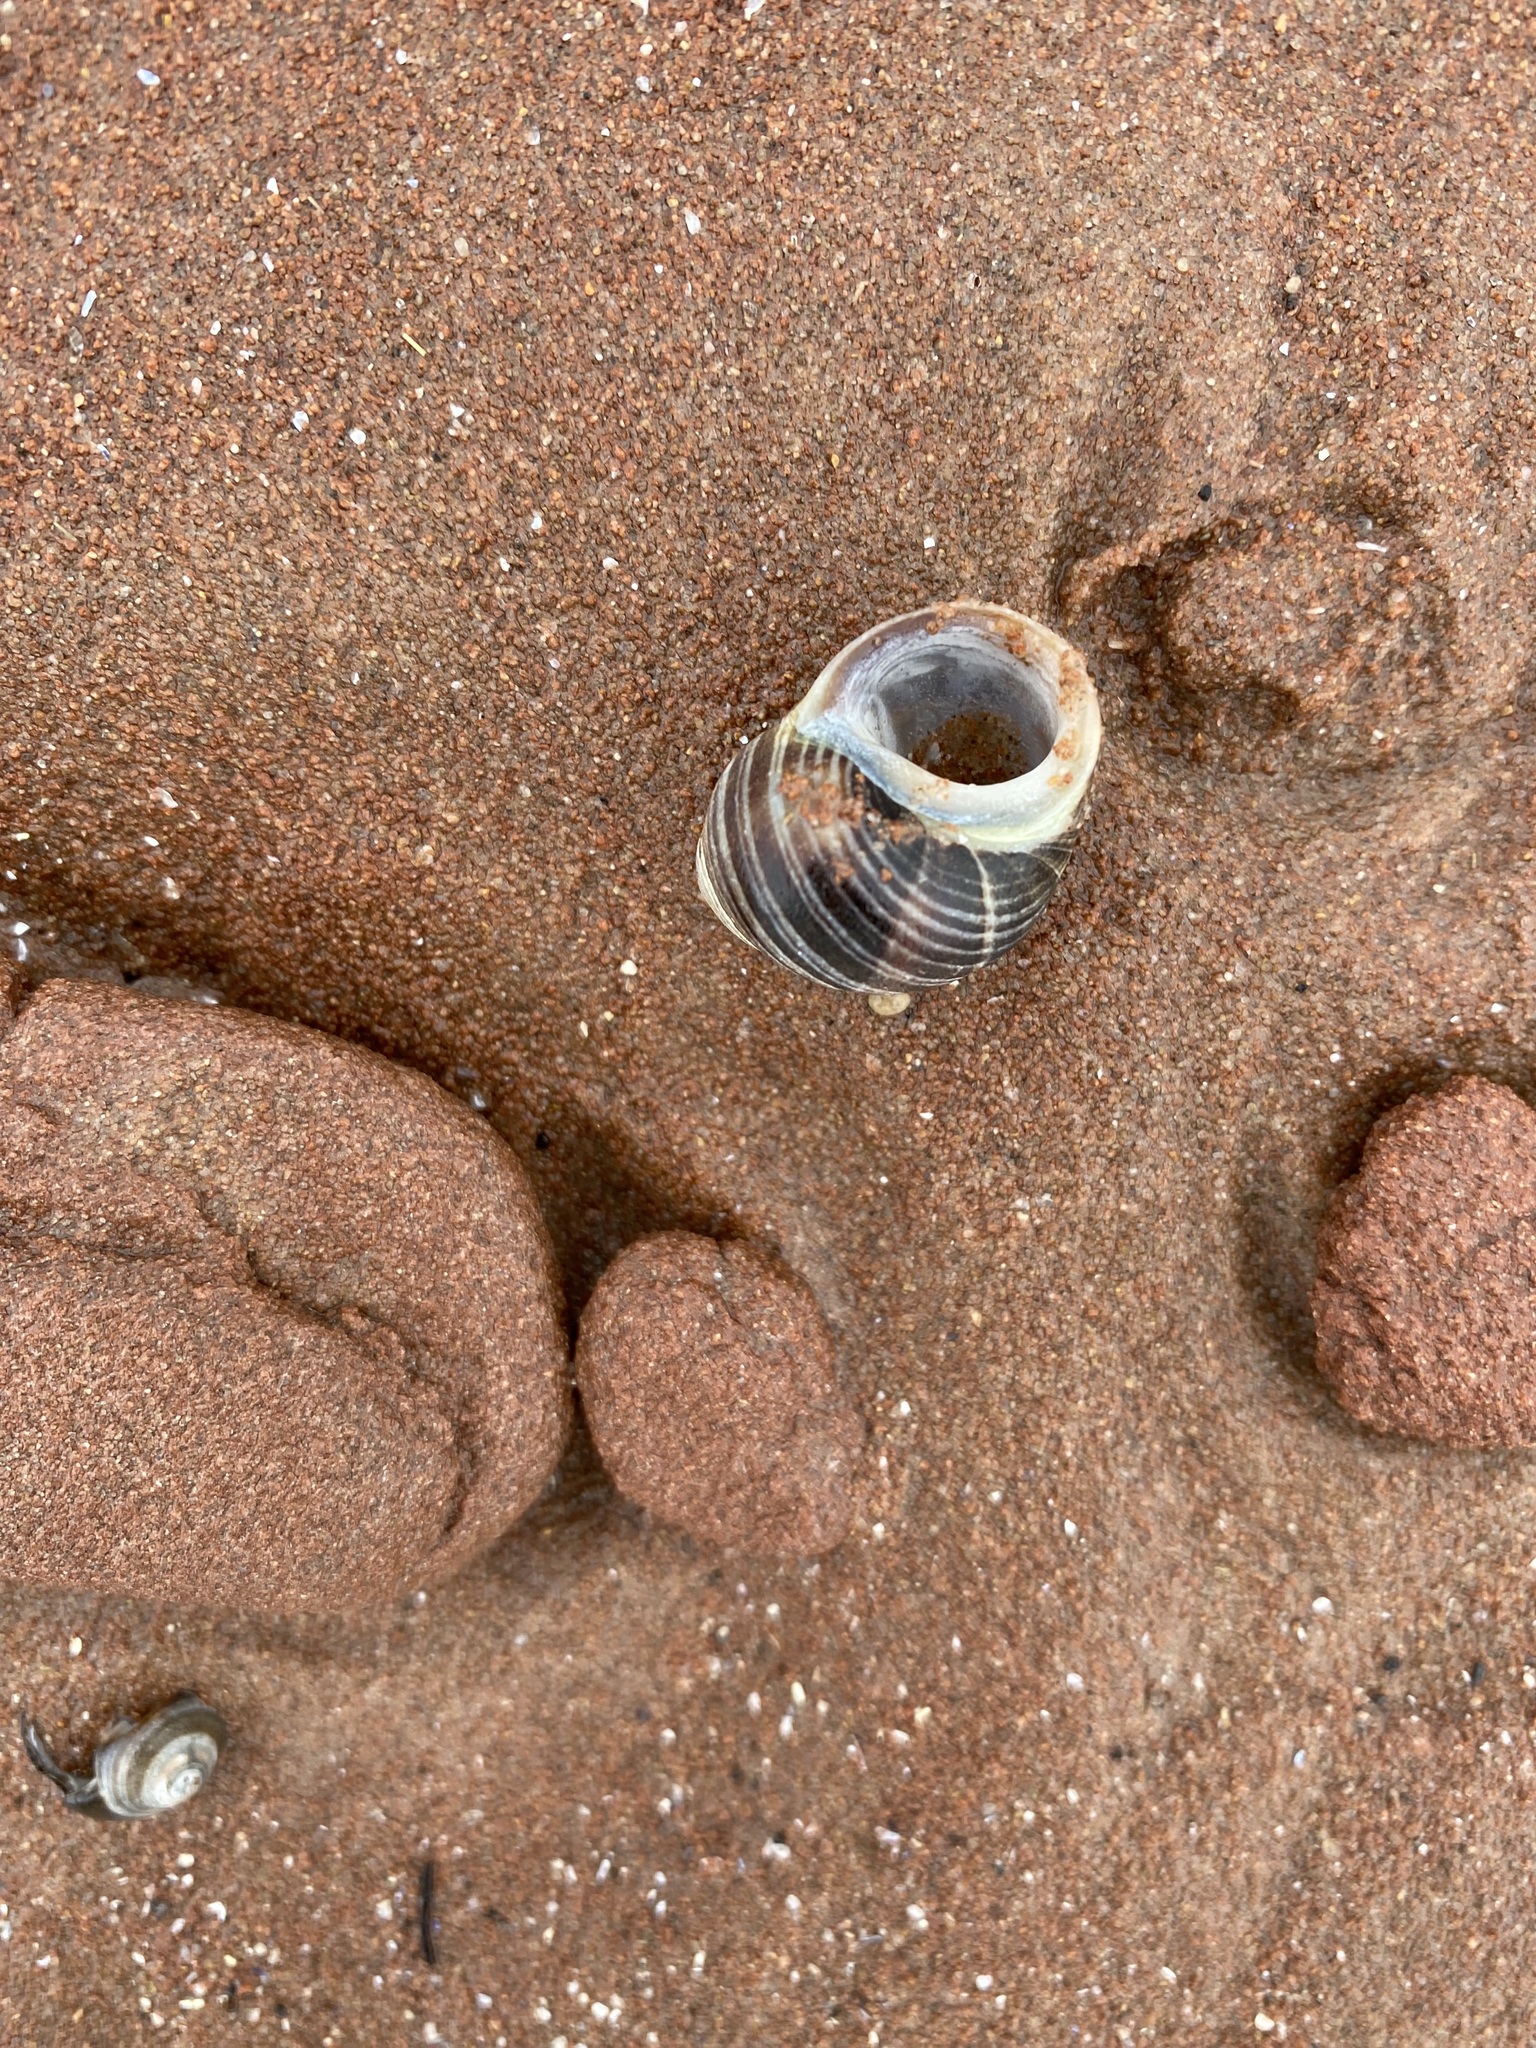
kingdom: Animalia
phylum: Mollusca
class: Gastropoda
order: Littorinimorpha
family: Littorinidae
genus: Littorina
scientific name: Littorina littorea
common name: Common periwinkle
